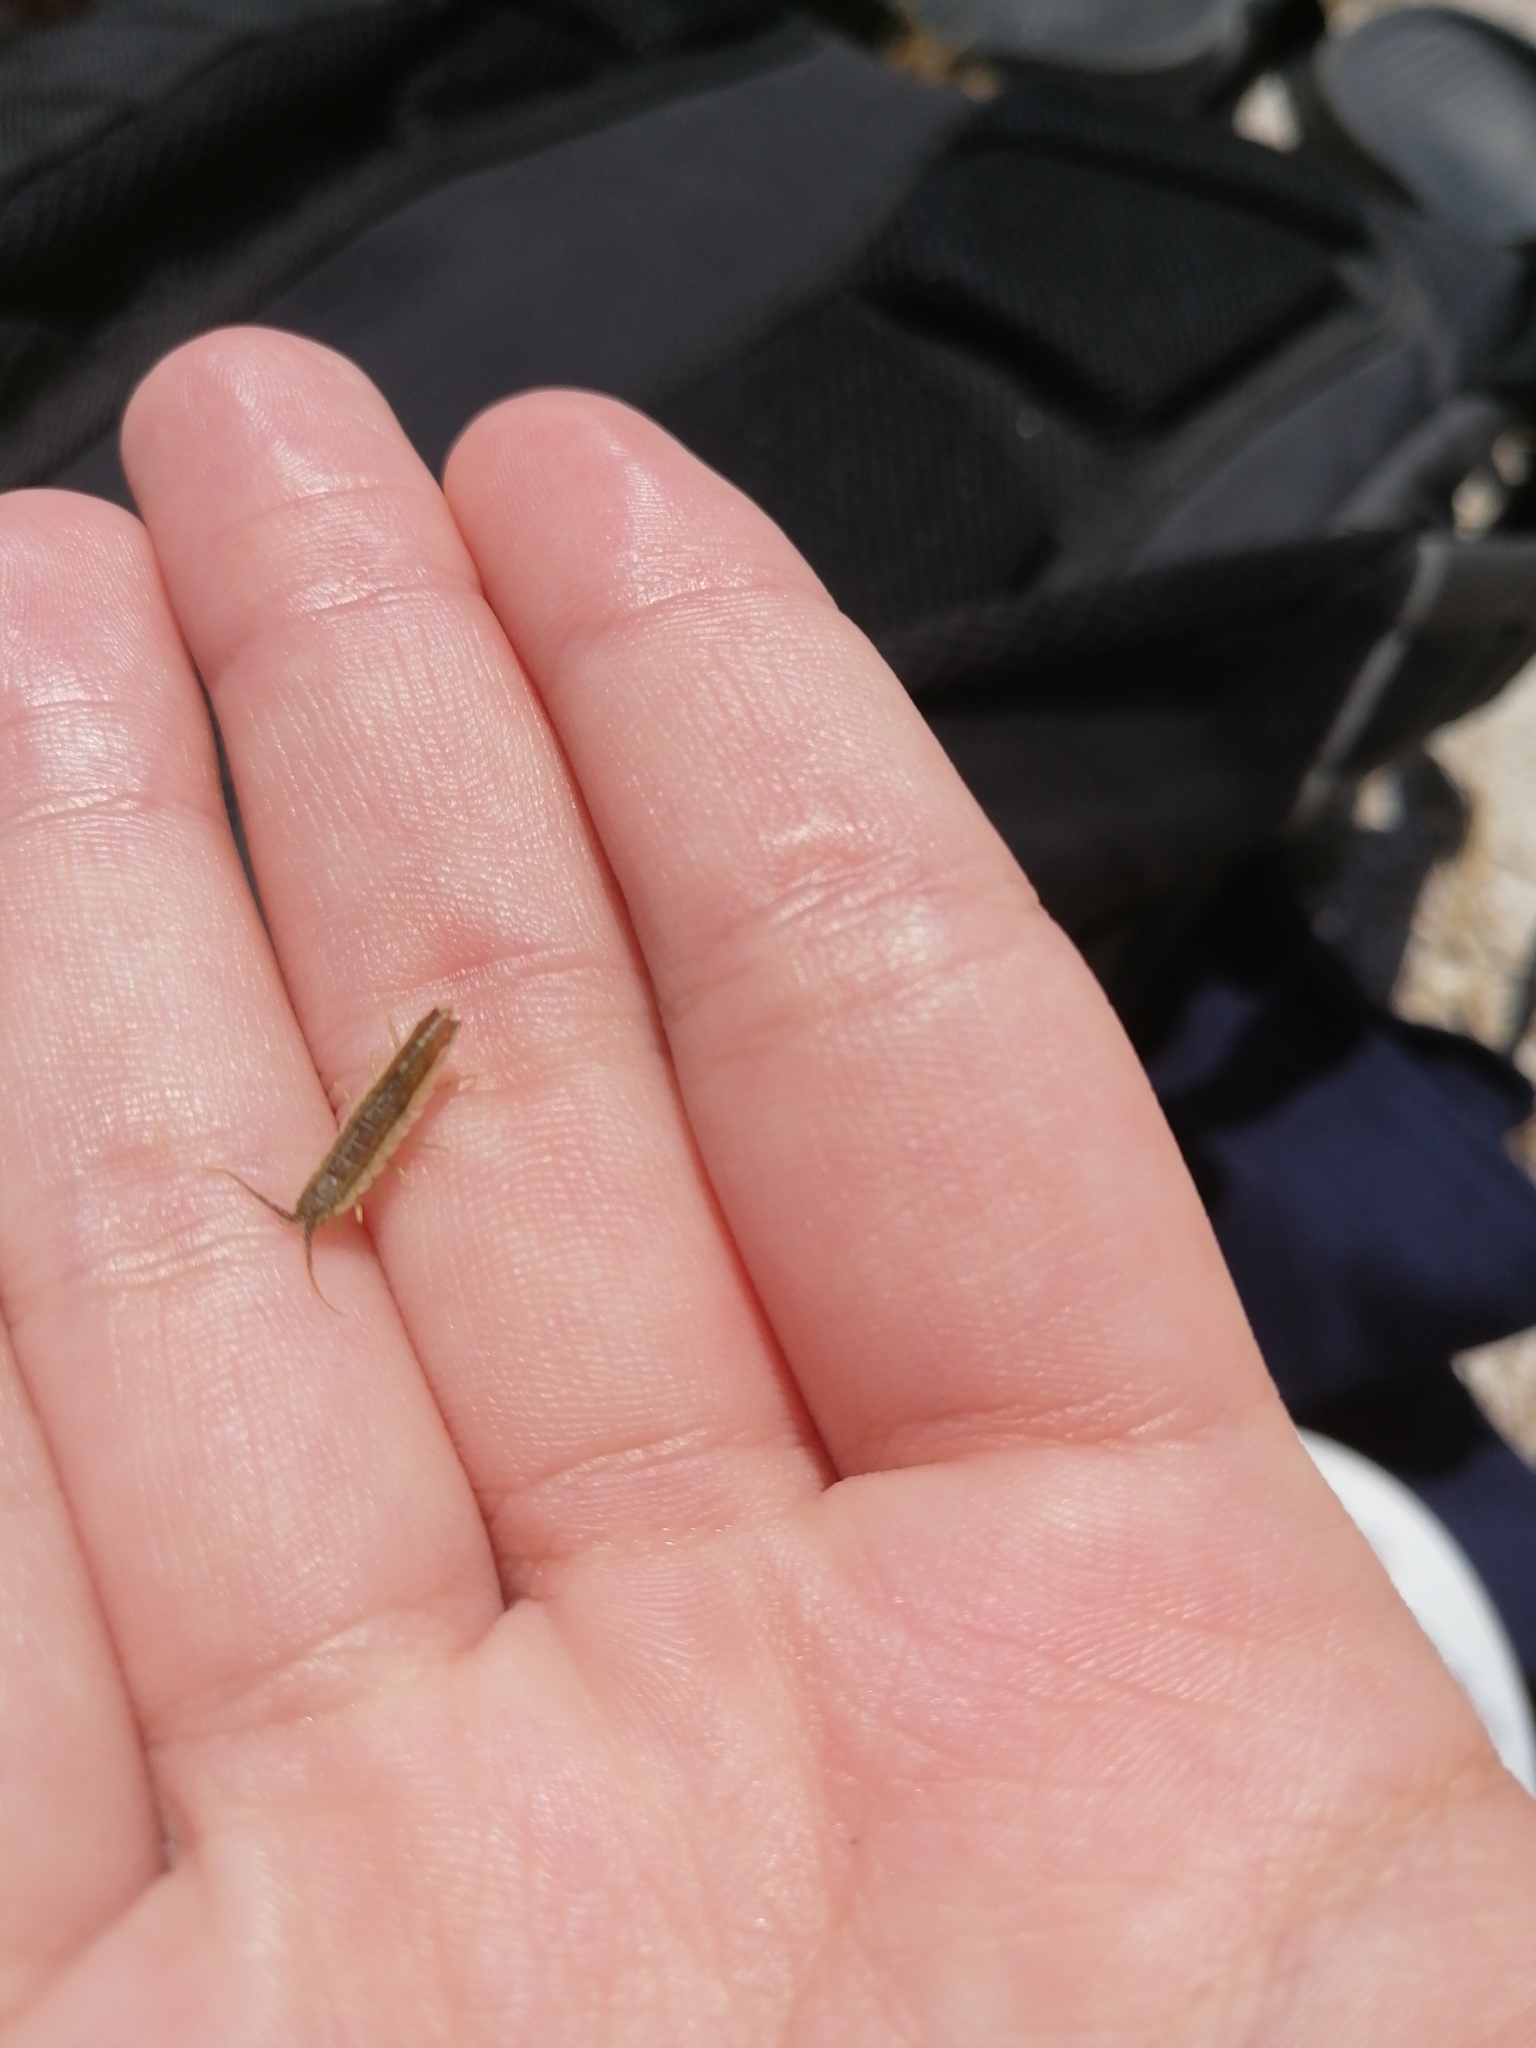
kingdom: Animalia
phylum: Arthropoda
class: Malacostraca
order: Isopoda
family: Idoteidae
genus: Idotea
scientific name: Idotea balthica
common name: Baltic isopod
